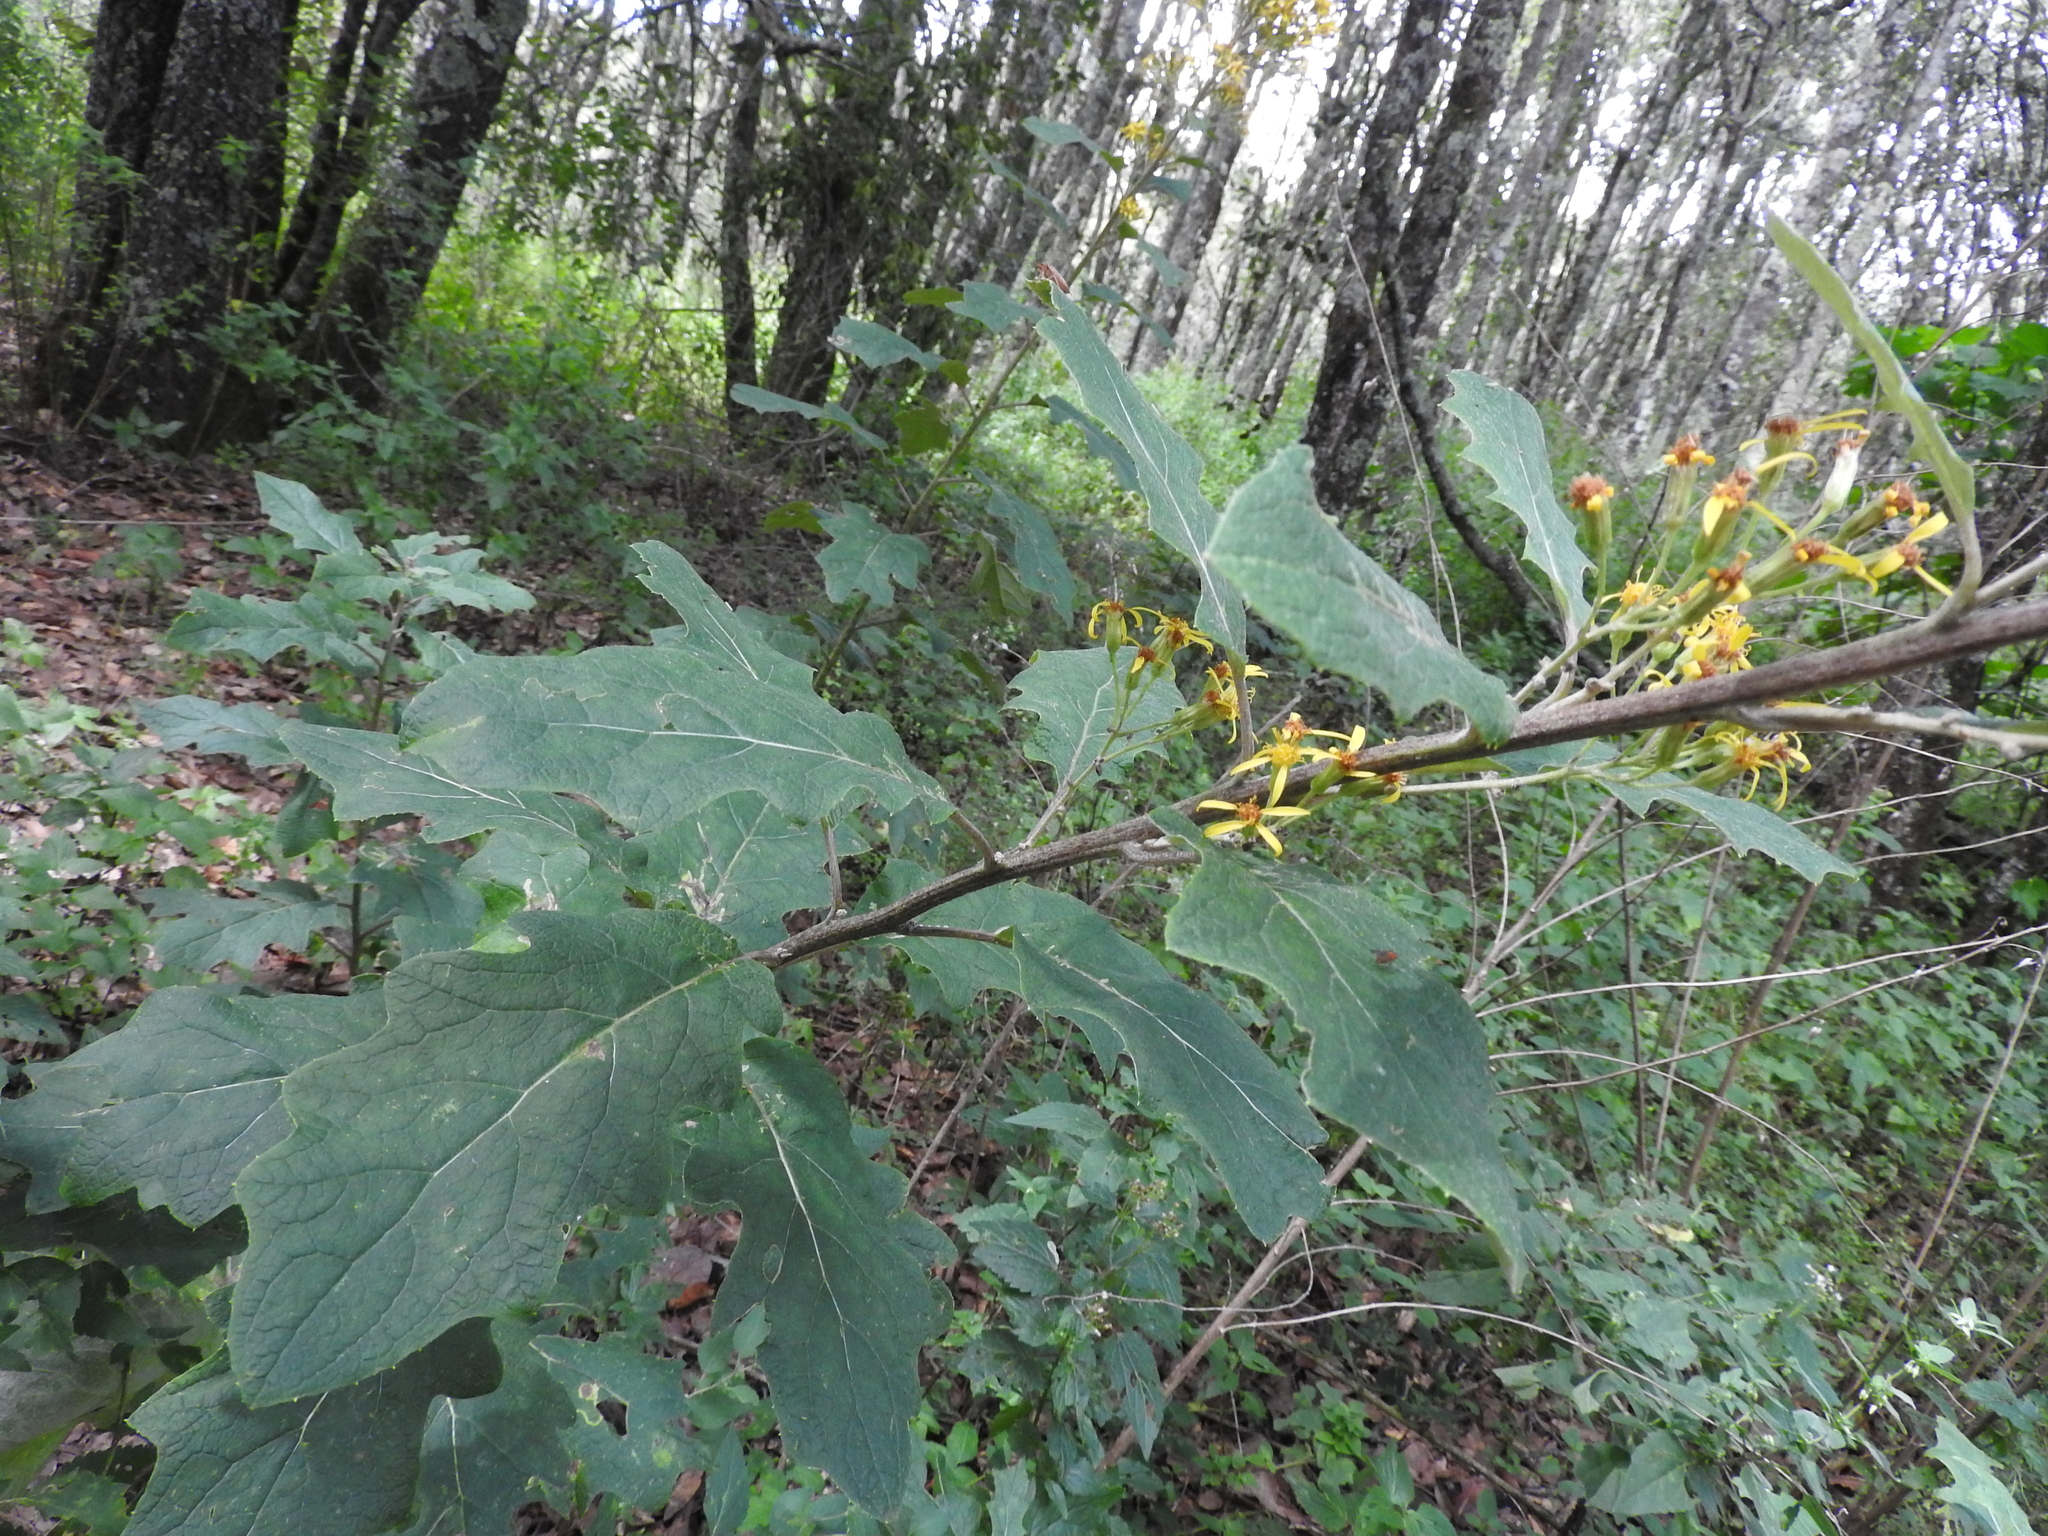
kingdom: Plantae
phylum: Tracheophyta
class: Magnoliopsida
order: Asterales
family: Asteraceae
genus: Roldana
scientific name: Roldana candicans
